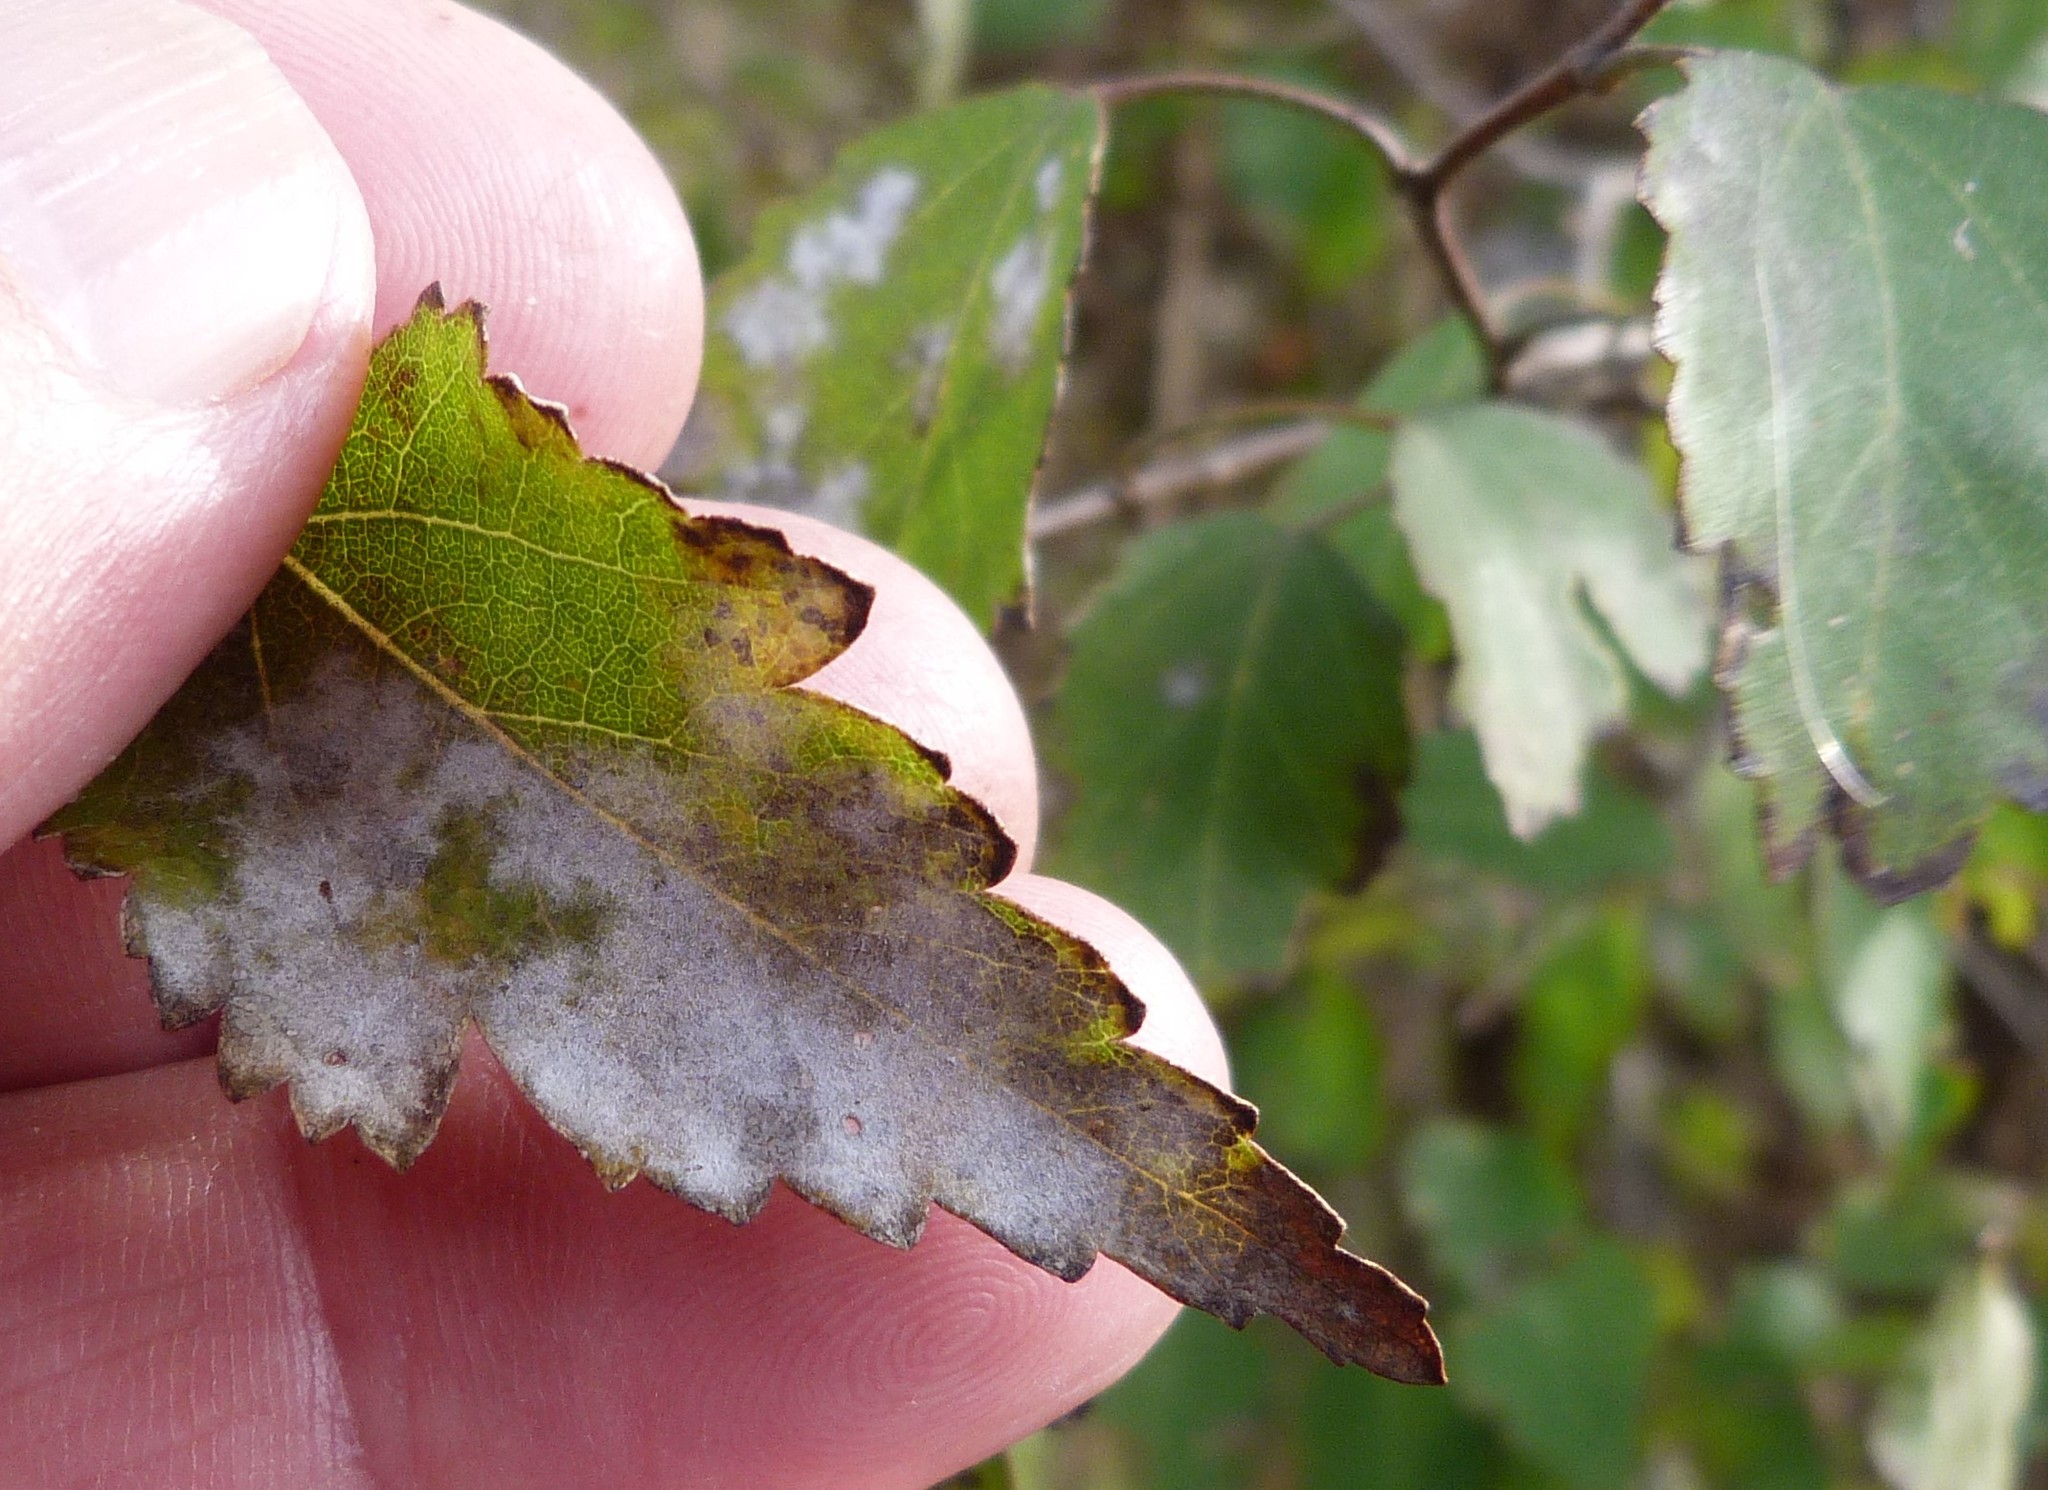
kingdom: Fungi
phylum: Ascomycota
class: Leotiomycetes
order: Helotiales
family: Erysiphaceae
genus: Podosphaera
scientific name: Podosphaera fusca
